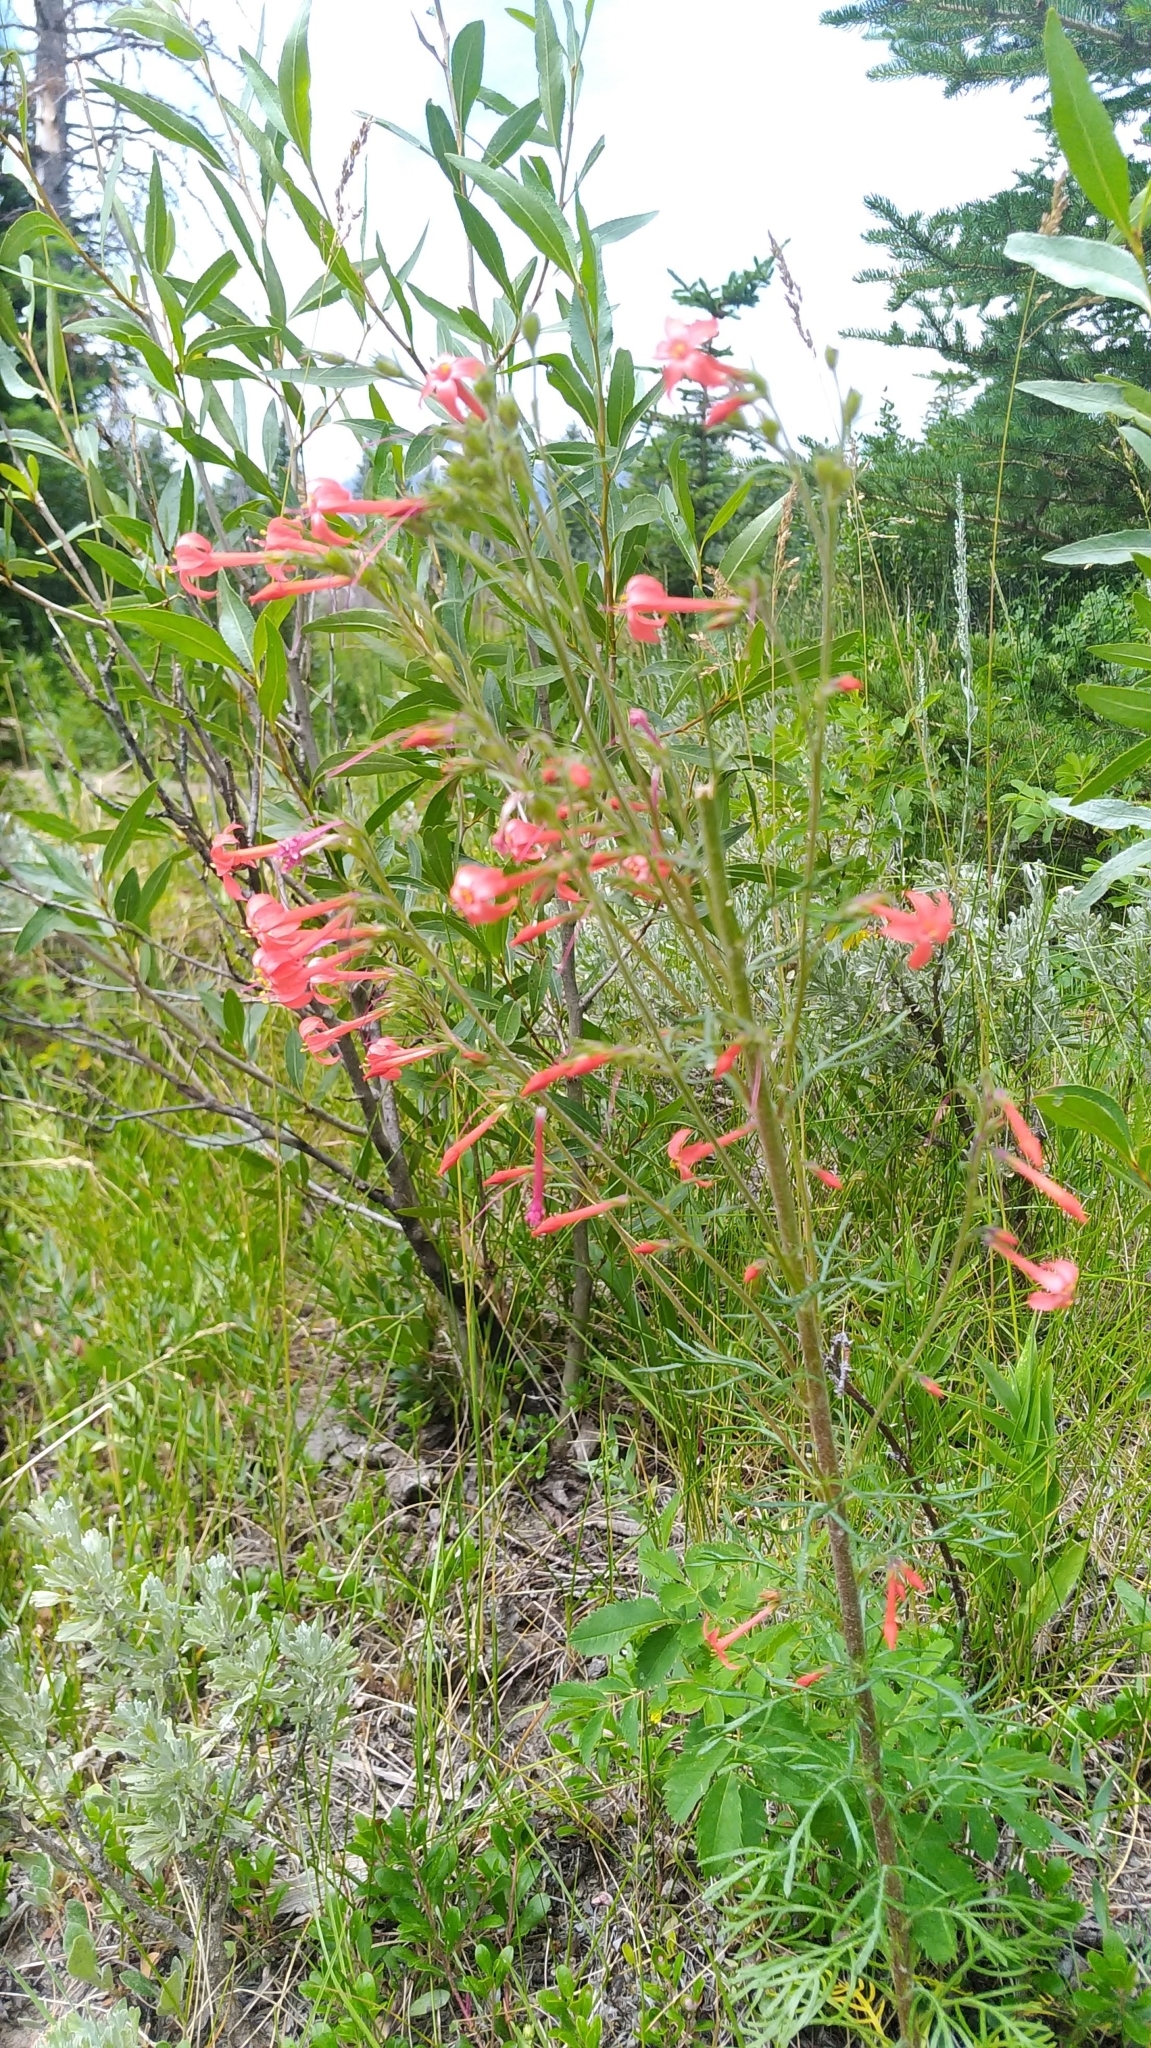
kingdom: Plantae
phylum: Tracheophyta
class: Magnoliopsida
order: Ericales
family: Polemoniaceae
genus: Ipomopsis
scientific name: Ipomopsis aggregata
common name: Scarlet gilia
